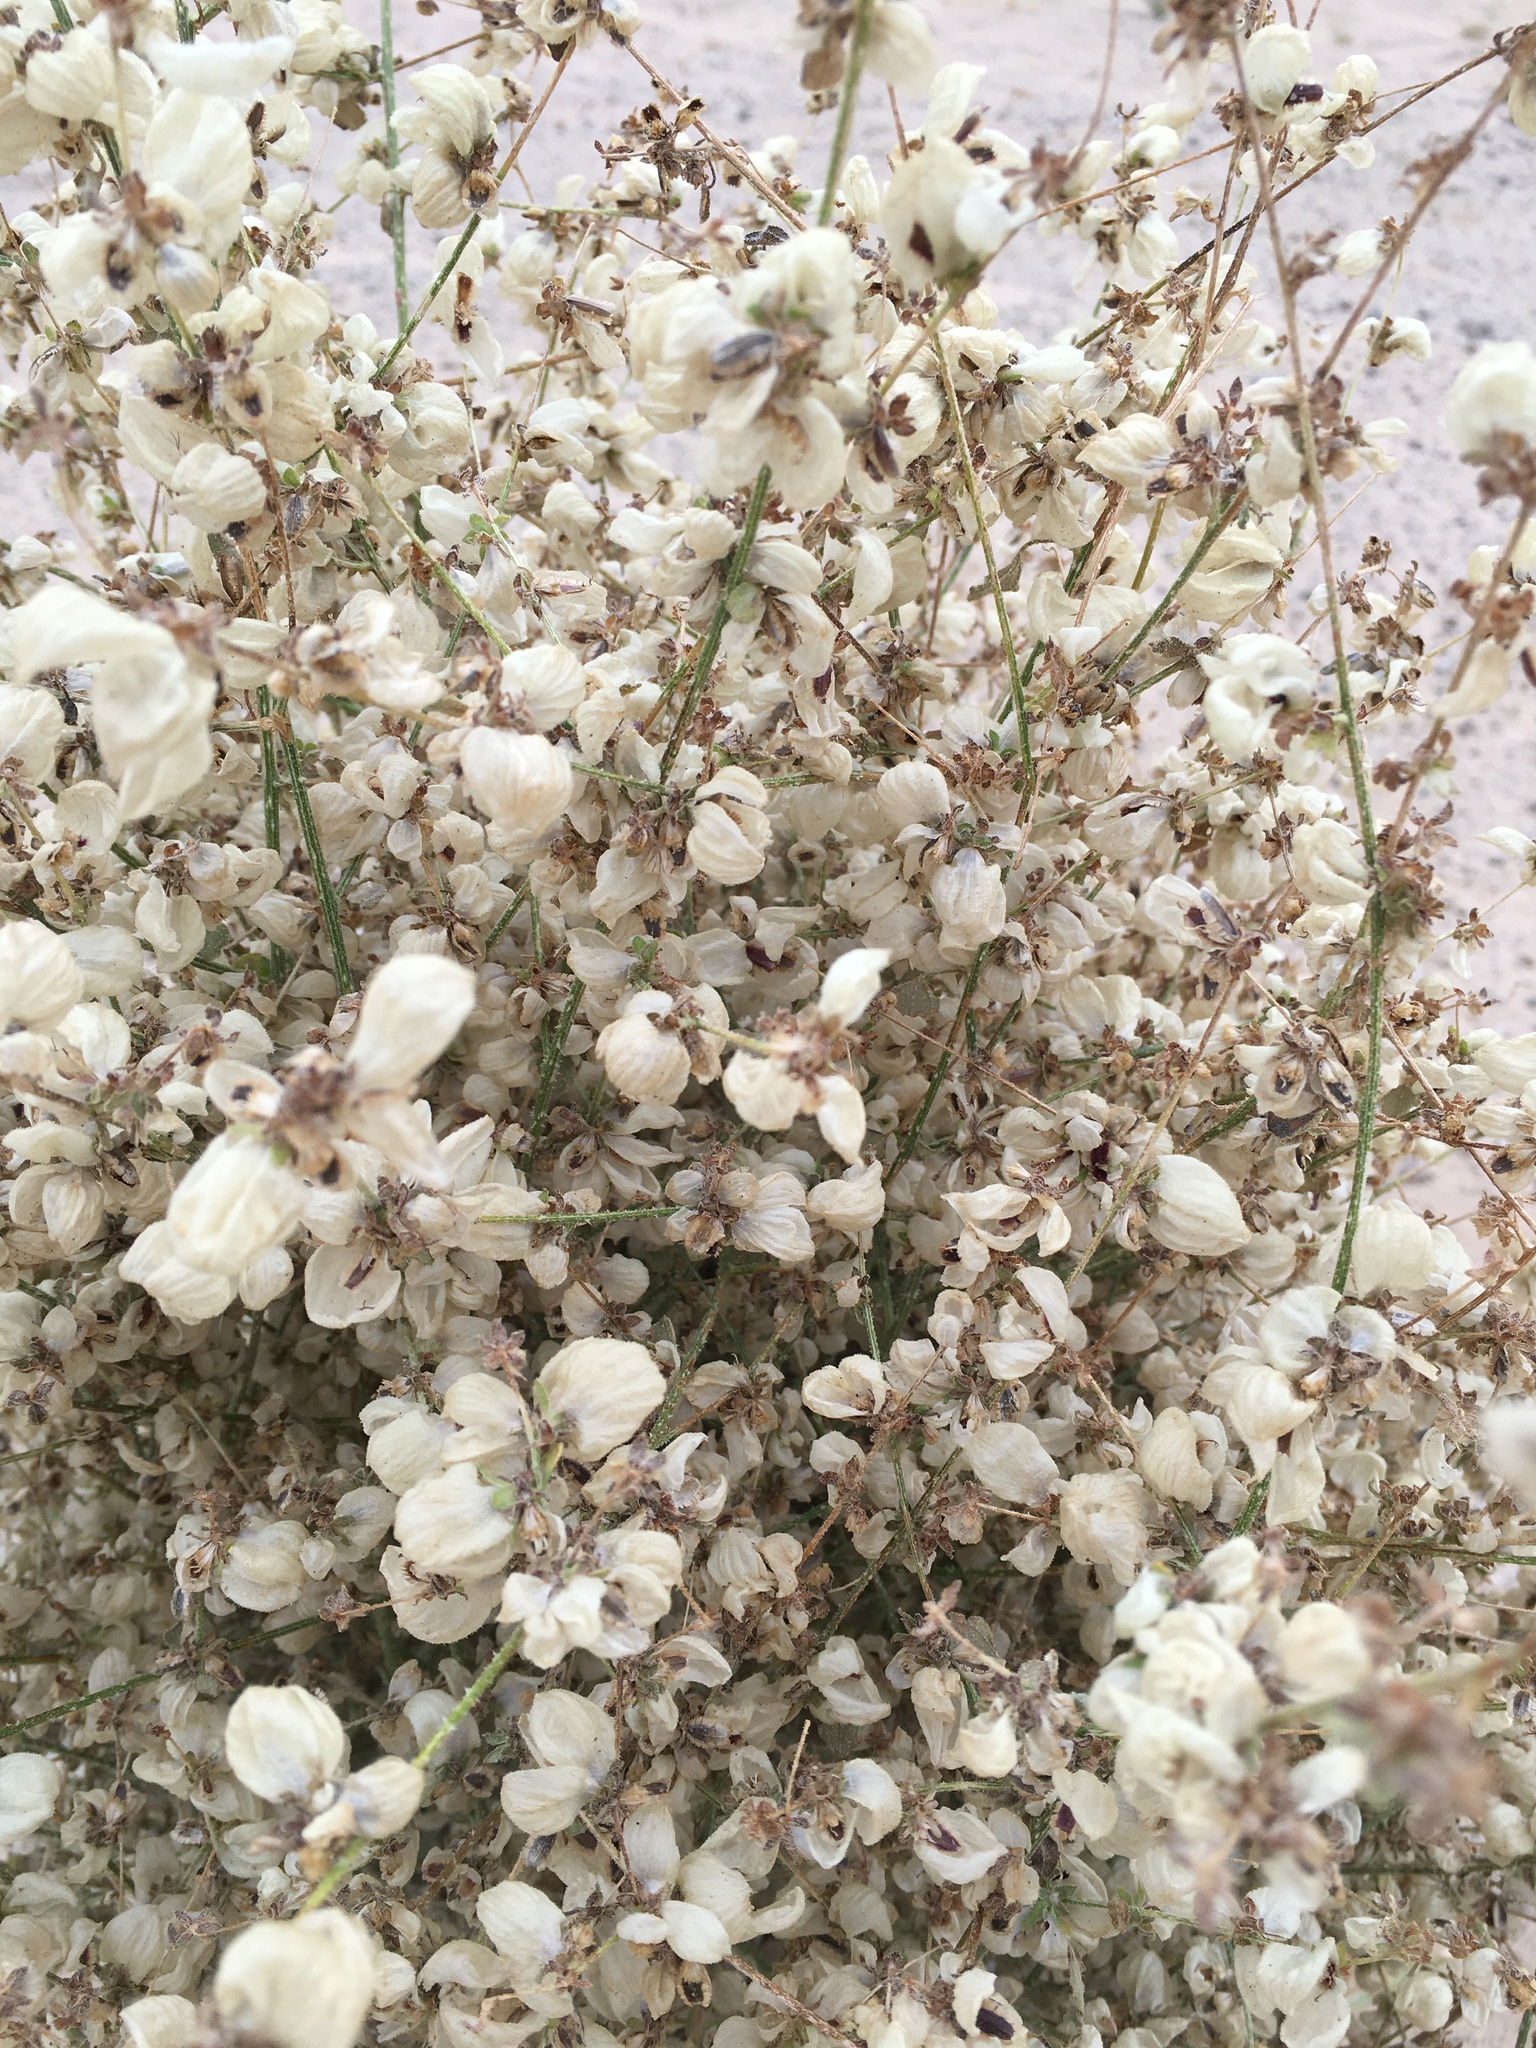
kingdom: Plantae
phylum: Tracheophyta
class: Magnoliopsida
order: Asterales
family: Asteraceae
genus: Dicoria
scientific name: Dicoria canescens
